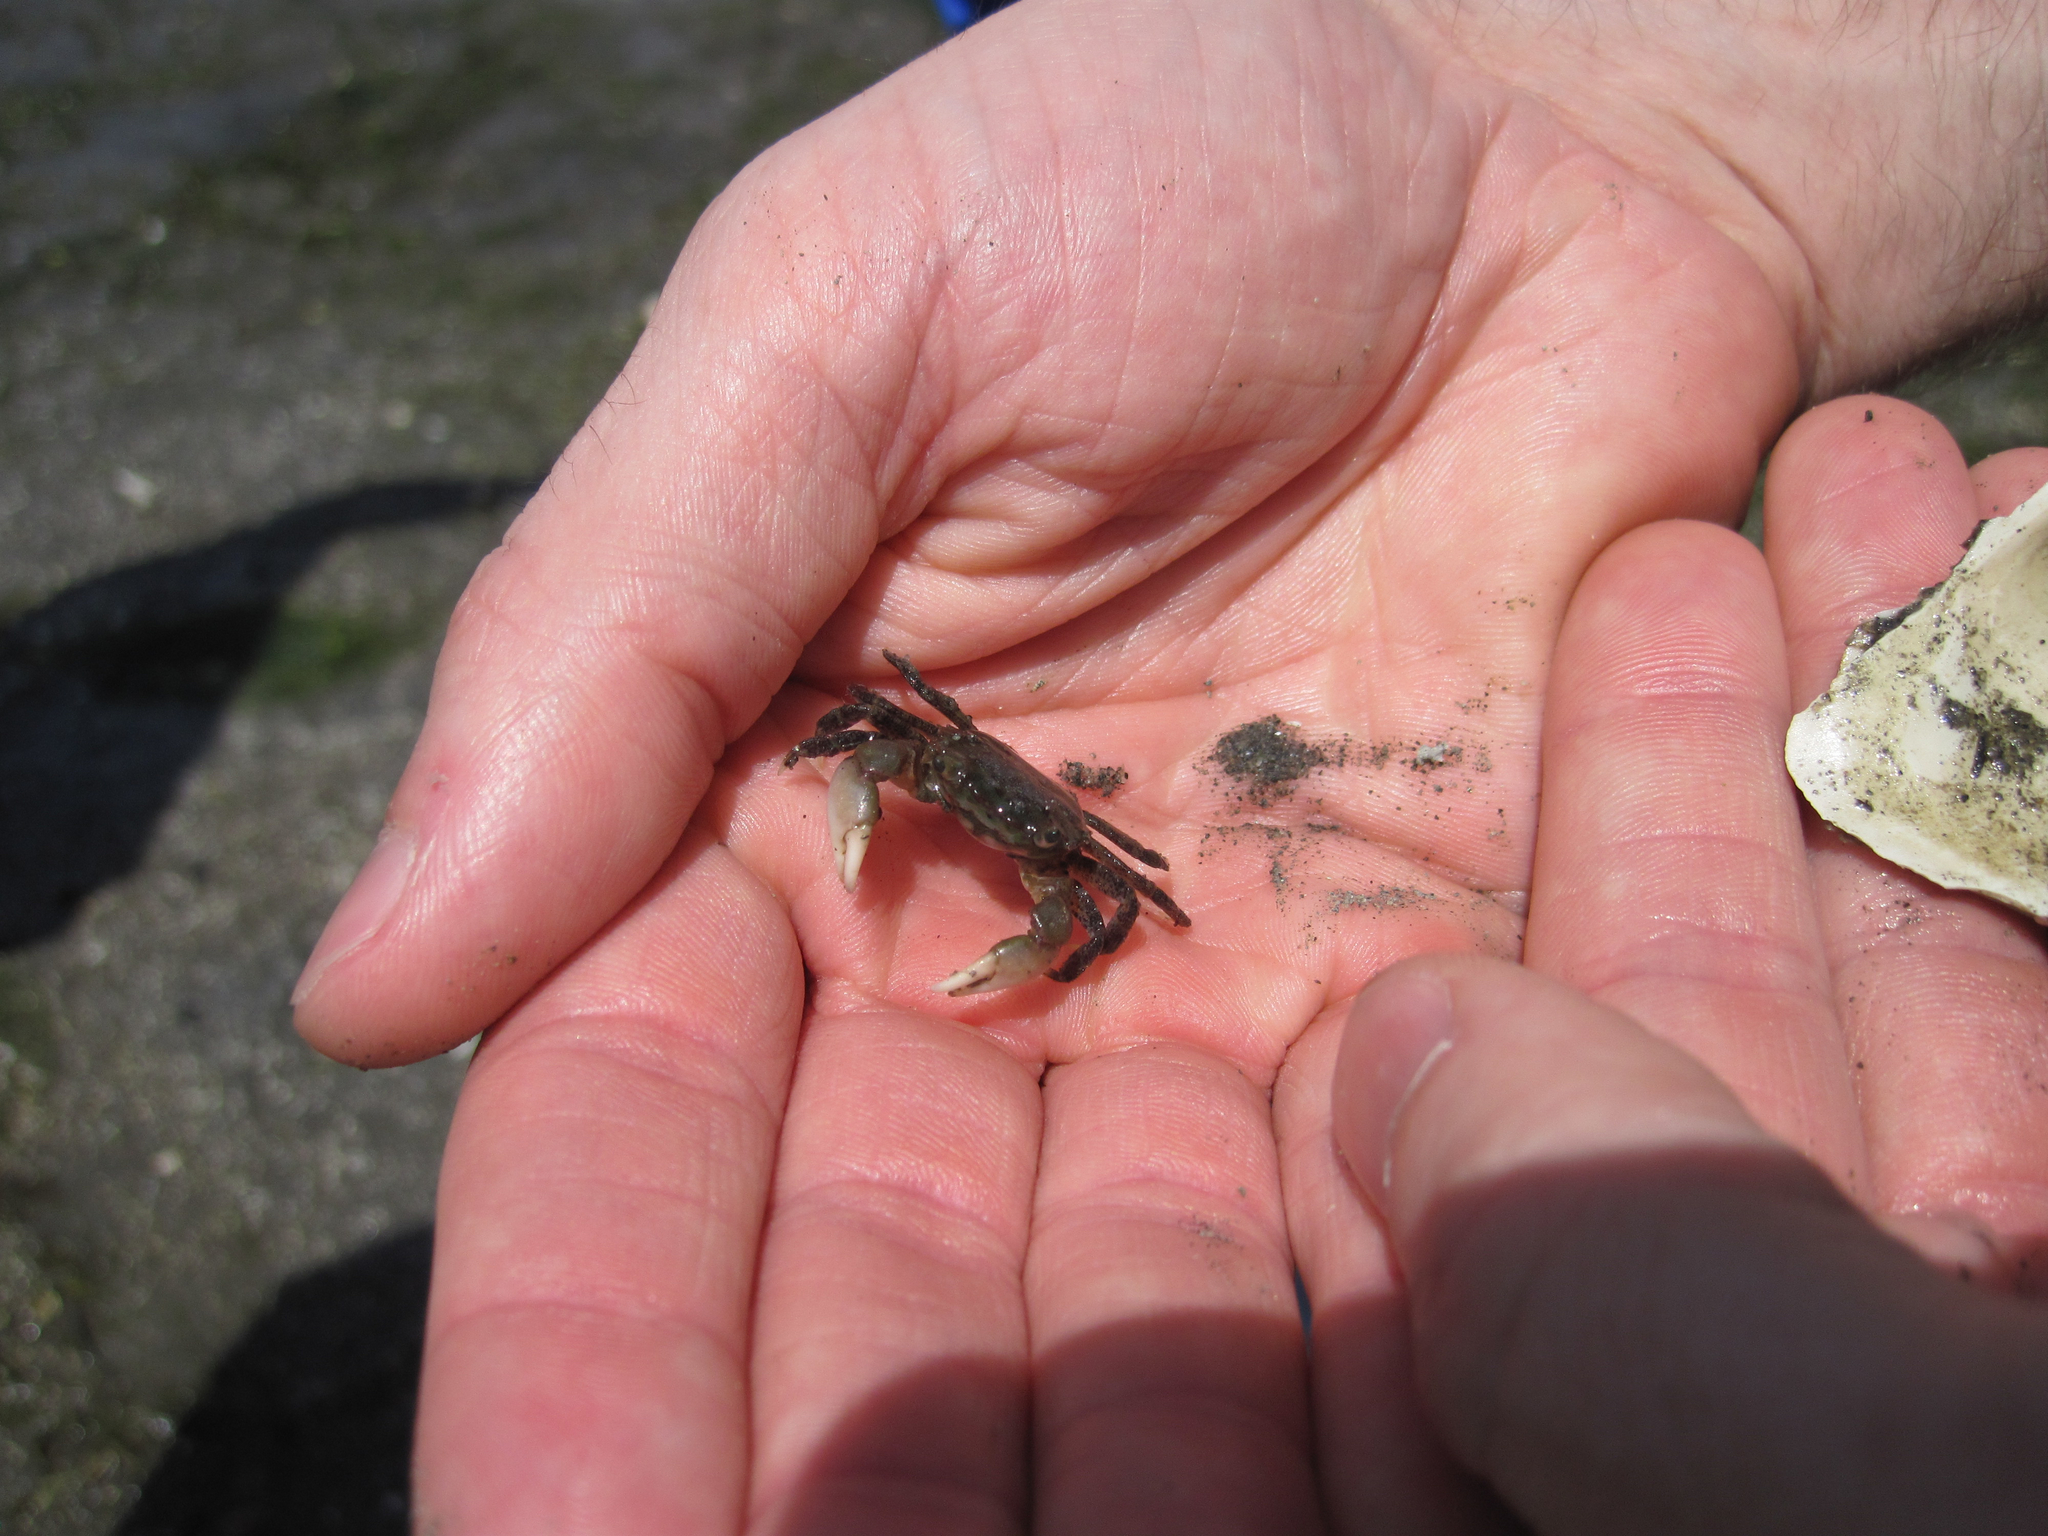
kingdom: Animalia
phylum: Arthropoda
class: Malacostraca
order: Decapoda
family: Varunidae
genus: Hemigrapsus
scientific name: Hemigrapsus oregonensis
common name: Yellow shore crab
